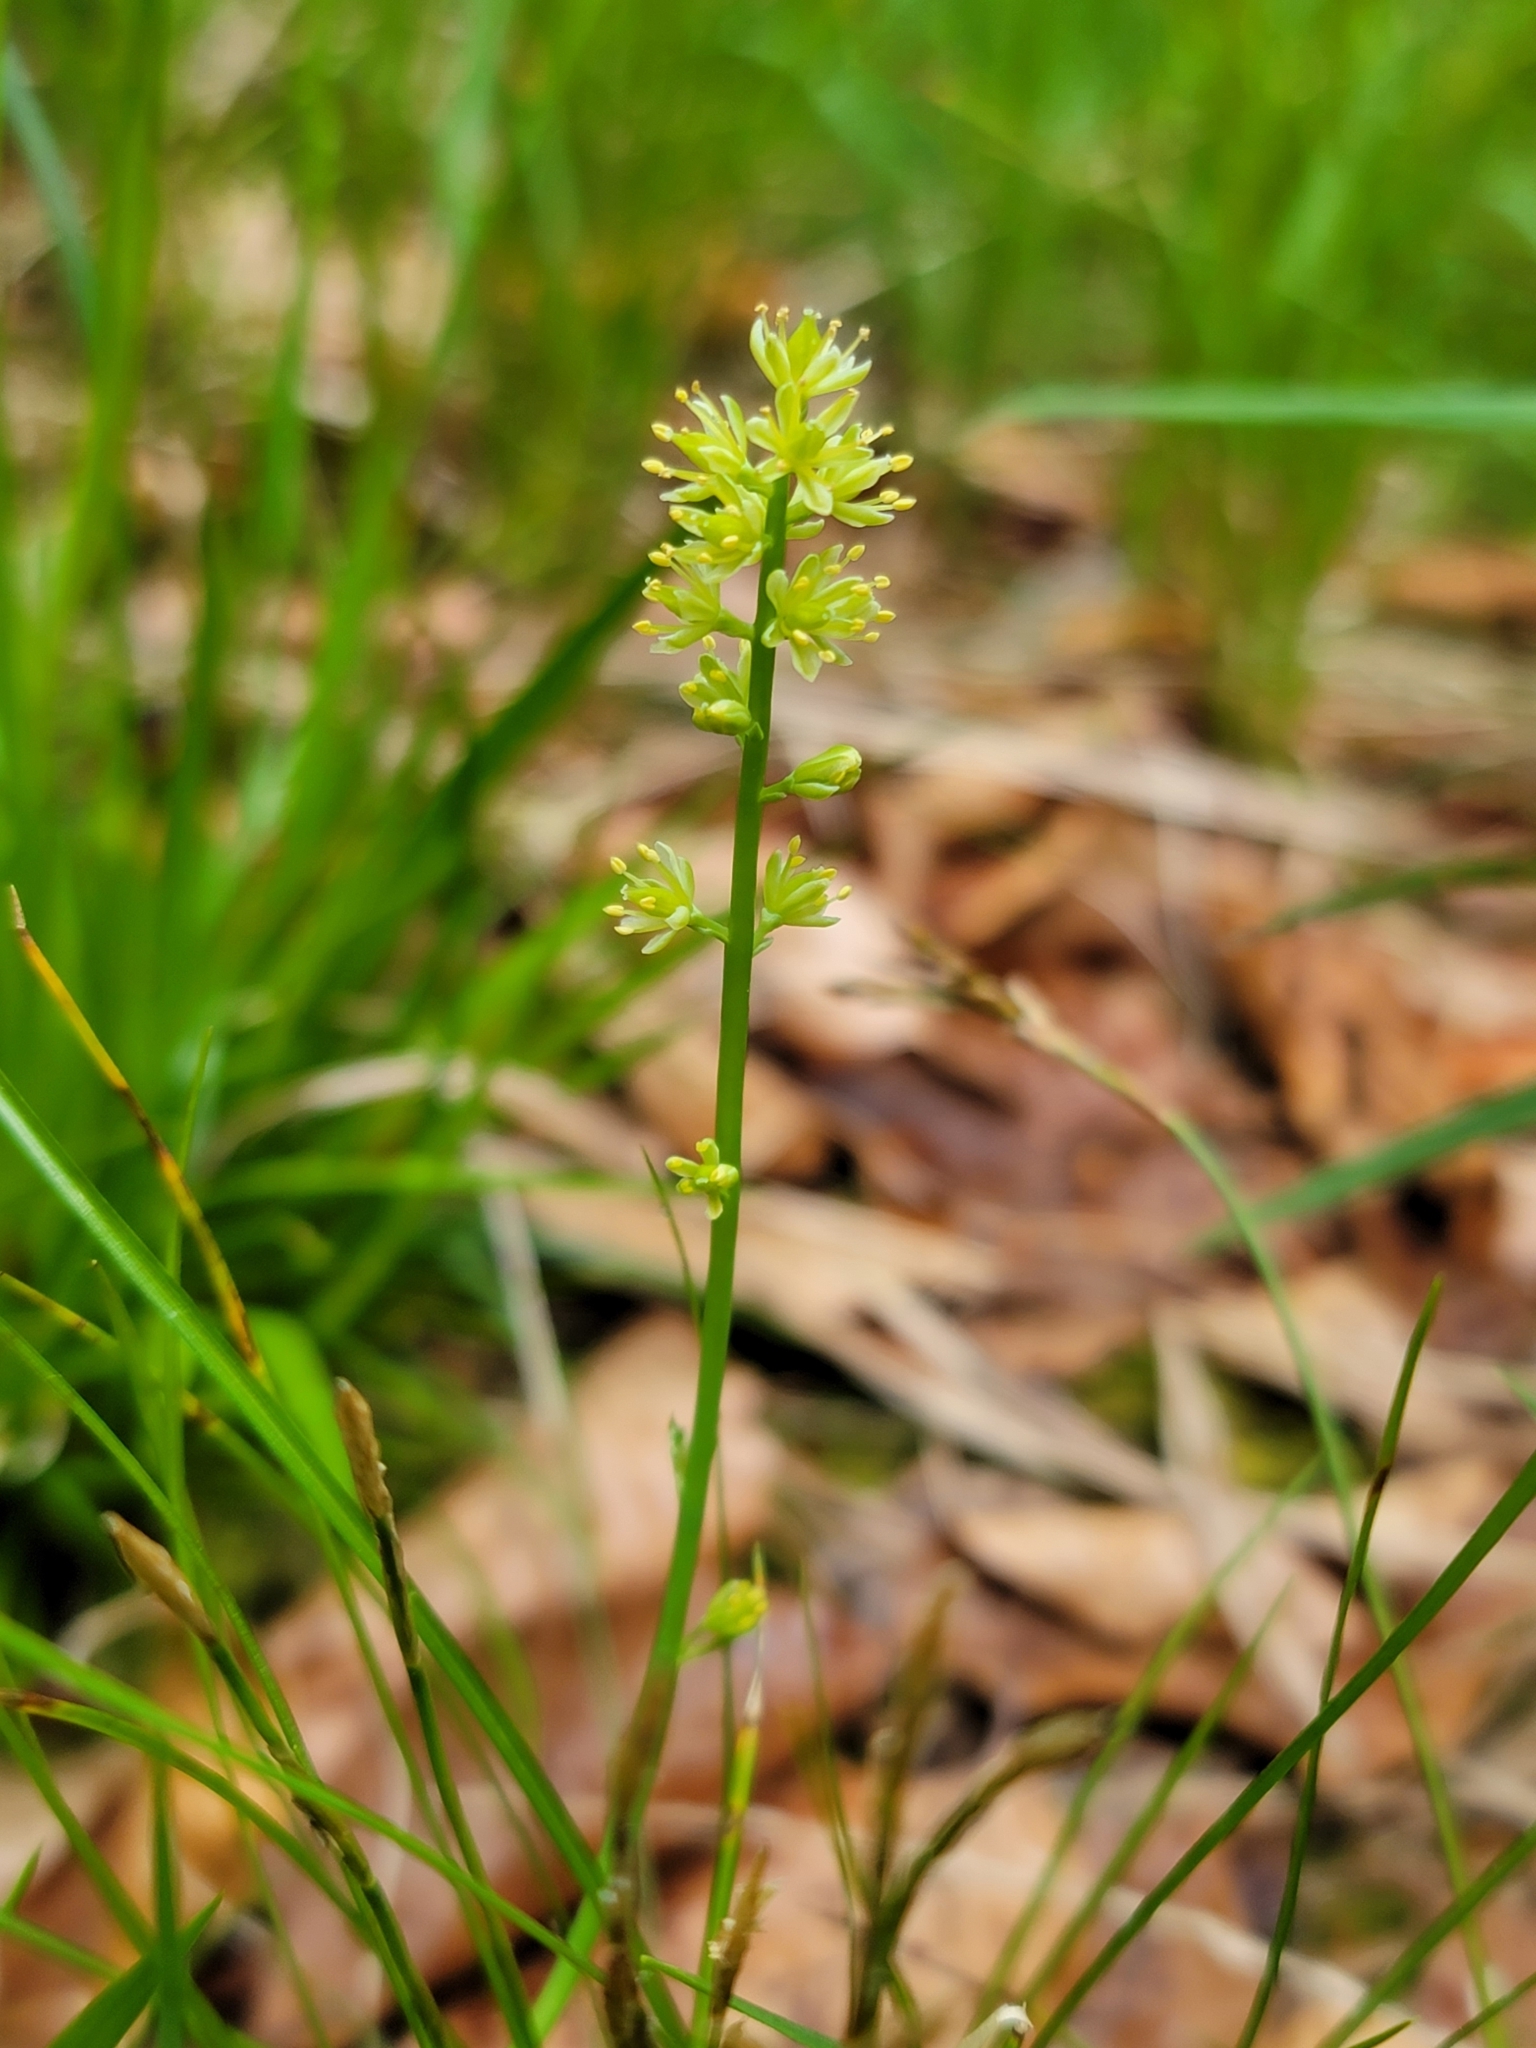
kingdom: Plantae
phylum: Tracheophyta
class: Liliopsida
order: Alismatales
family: Tofieldiaceae
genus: Tofieldia
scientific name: Tofieldia calyculata
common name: German-asphodel
